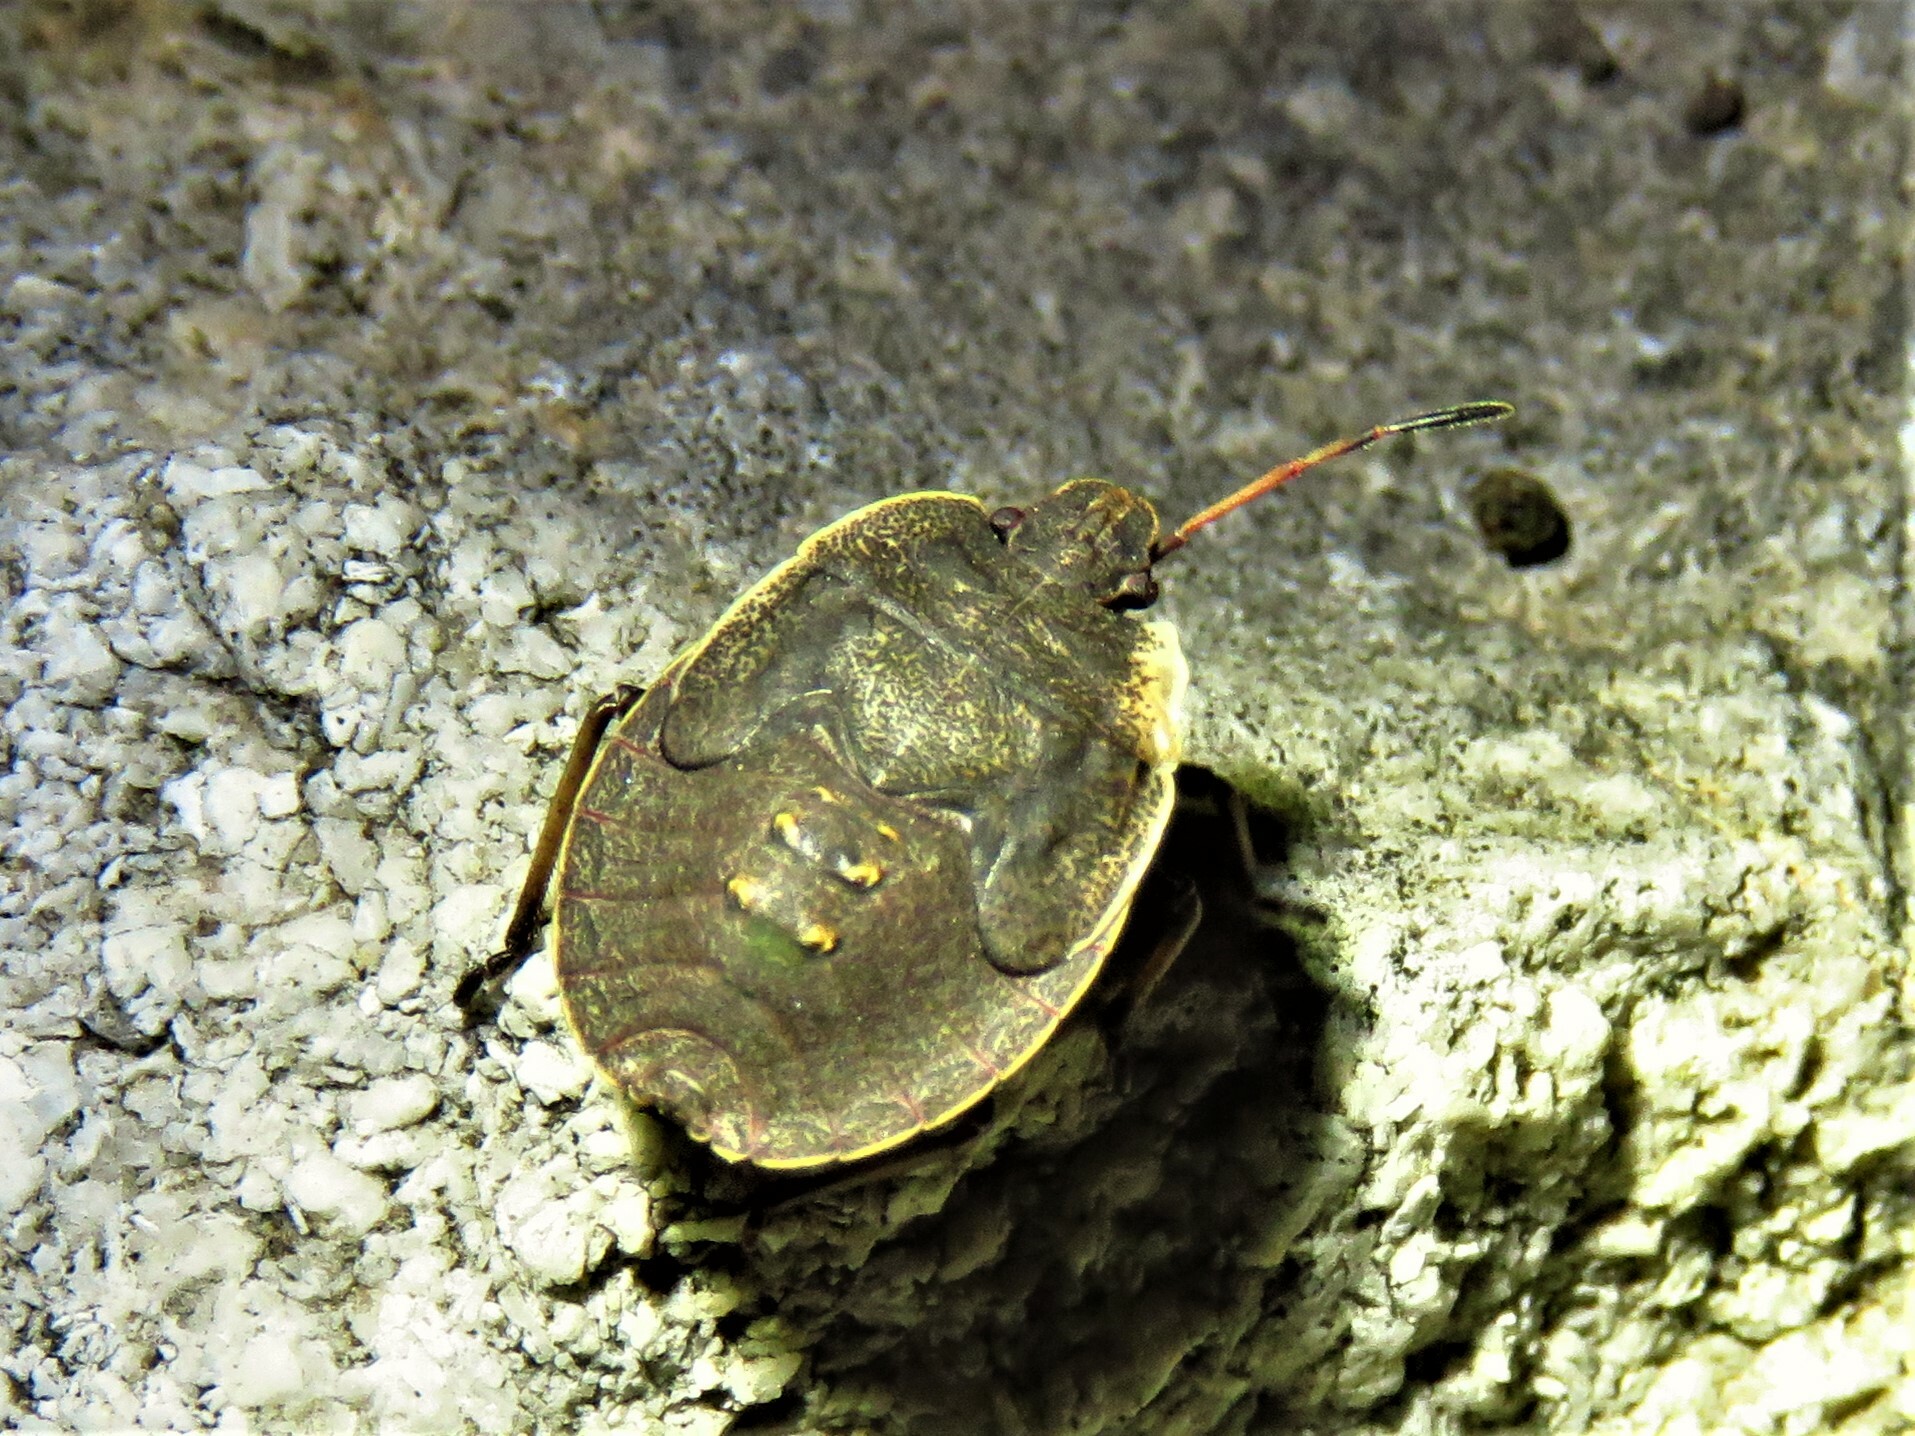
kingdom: Animalia
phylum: Arthropoda
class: Insecta
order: Hemiptera
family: Pentatomidae
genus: Menecles
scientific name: Menecles insertus
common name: Elf shoe stink bug
